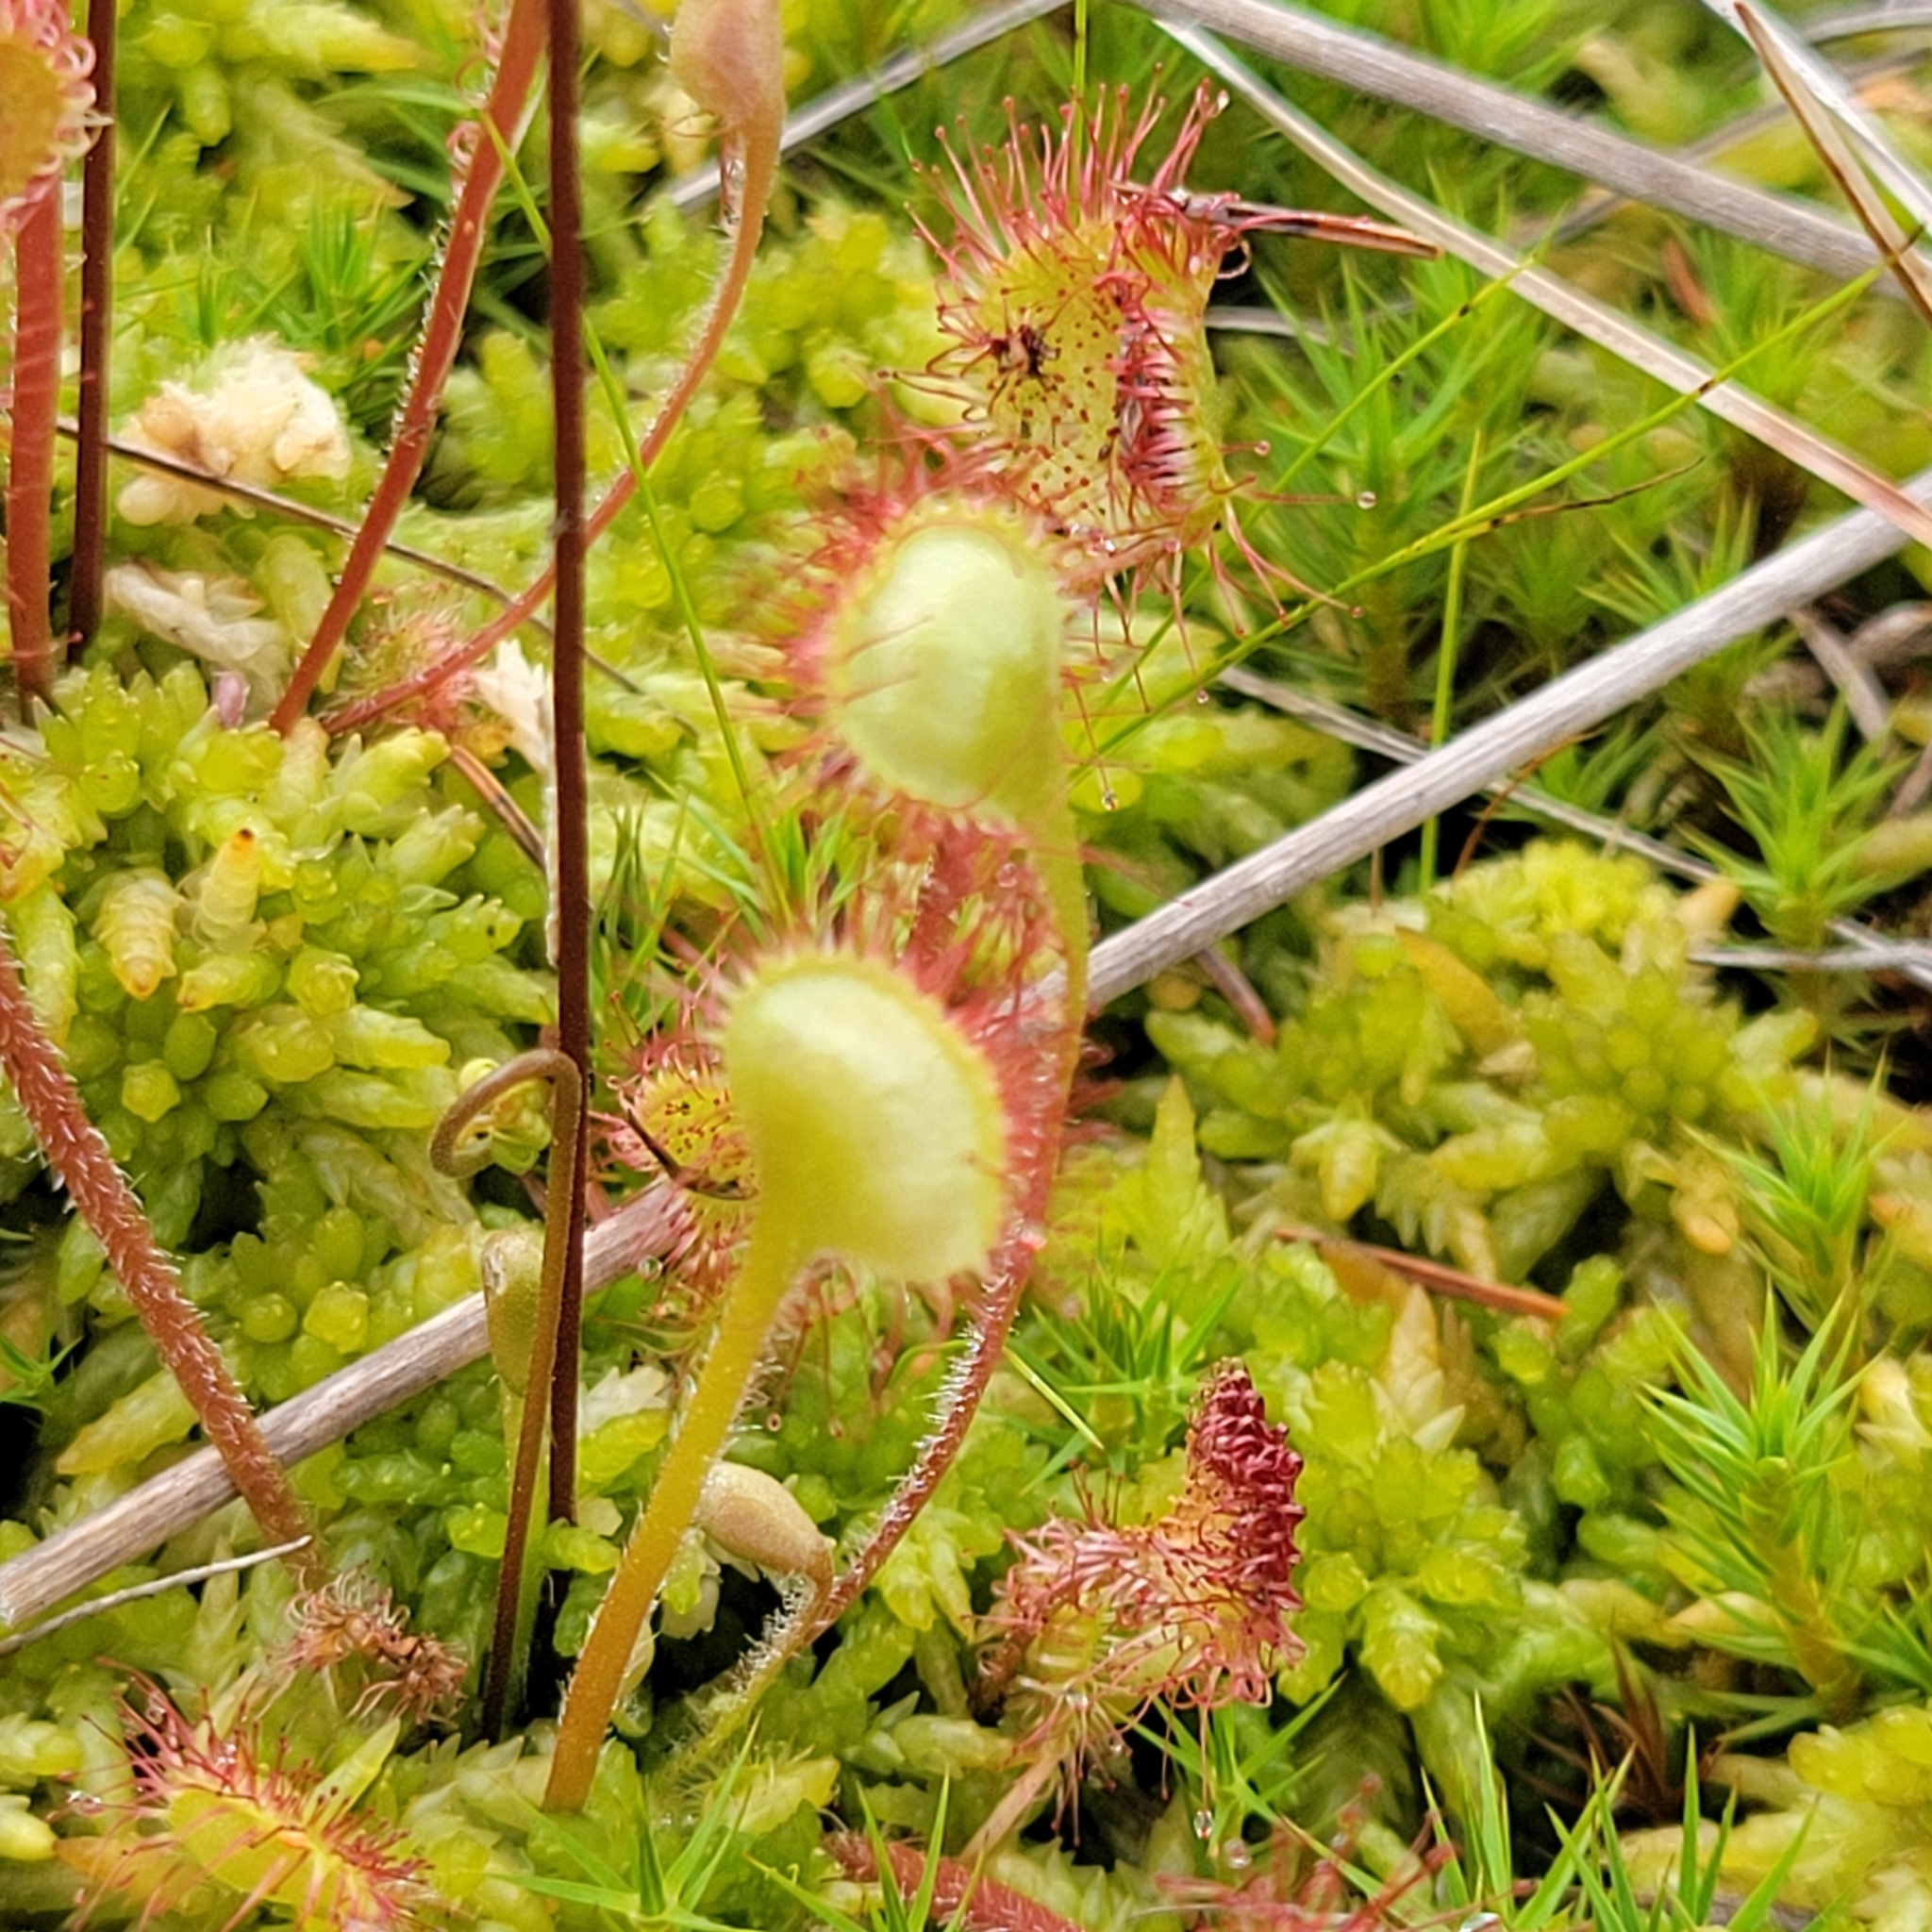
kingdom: Plantae
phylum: Tracheophyta
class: Magnoliopsida
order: Caryophyllales
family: Droseraceae
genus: Drosera
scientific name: Drosera rotundifolia
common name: Round-leaved sundew
